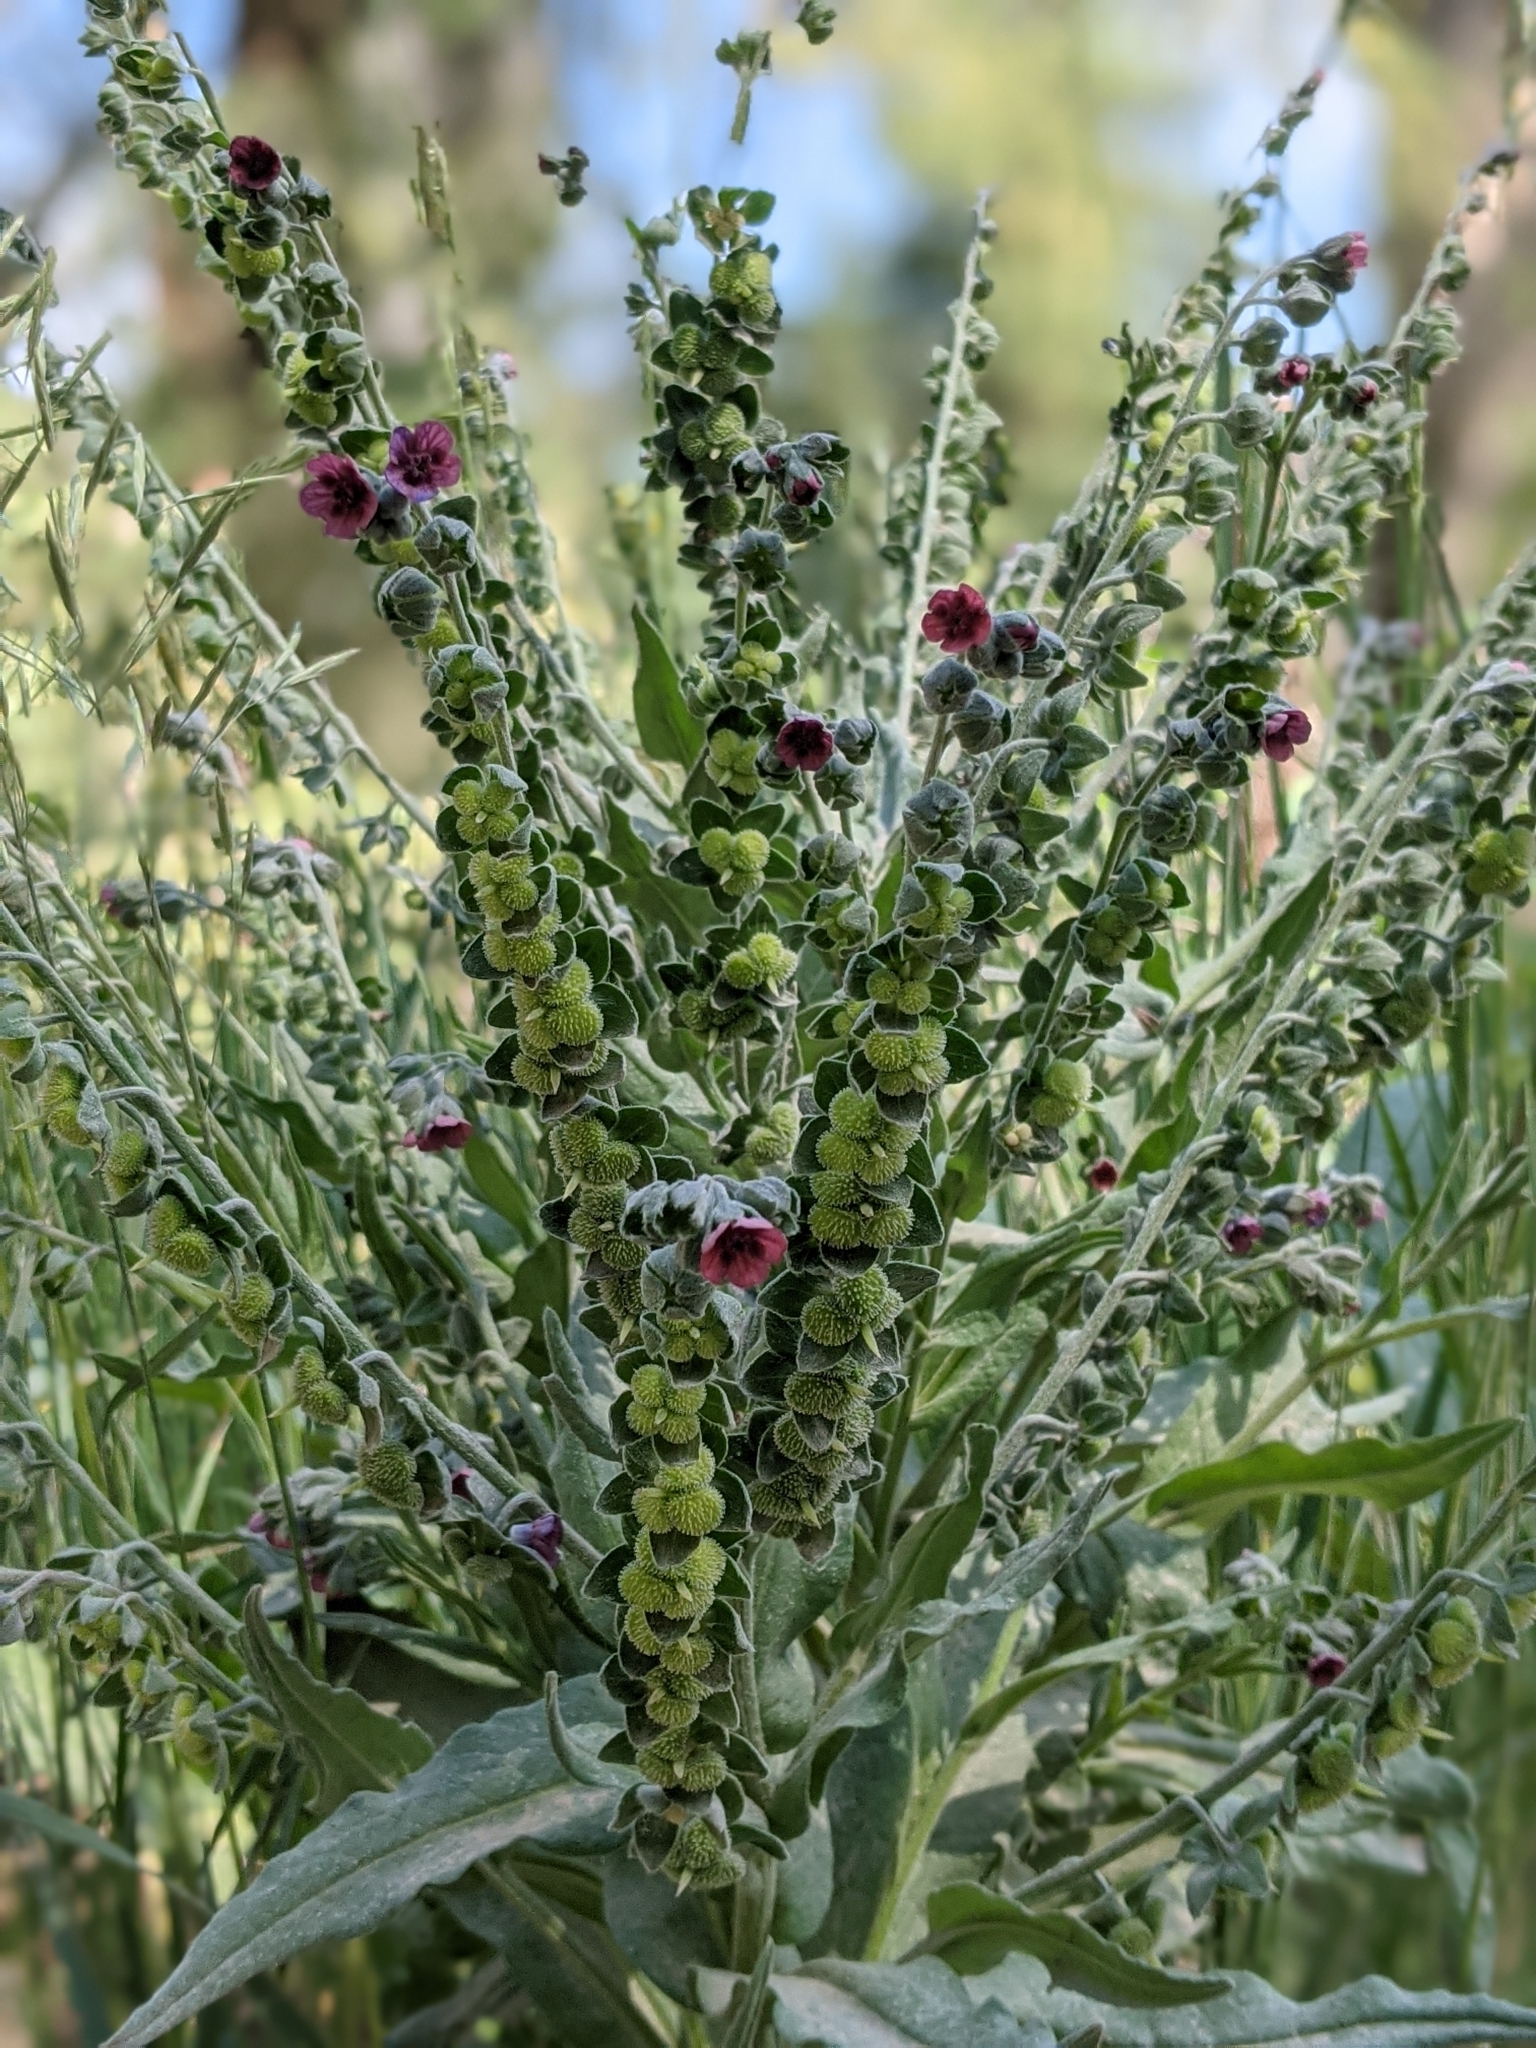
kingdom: Plantae
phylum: Tracheophyta
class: Magnoliopsida
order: Boraginales
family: Boraginaceae
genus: Cynoglossum
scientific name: Cynoglossum officinale
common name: Hound's-tongue
